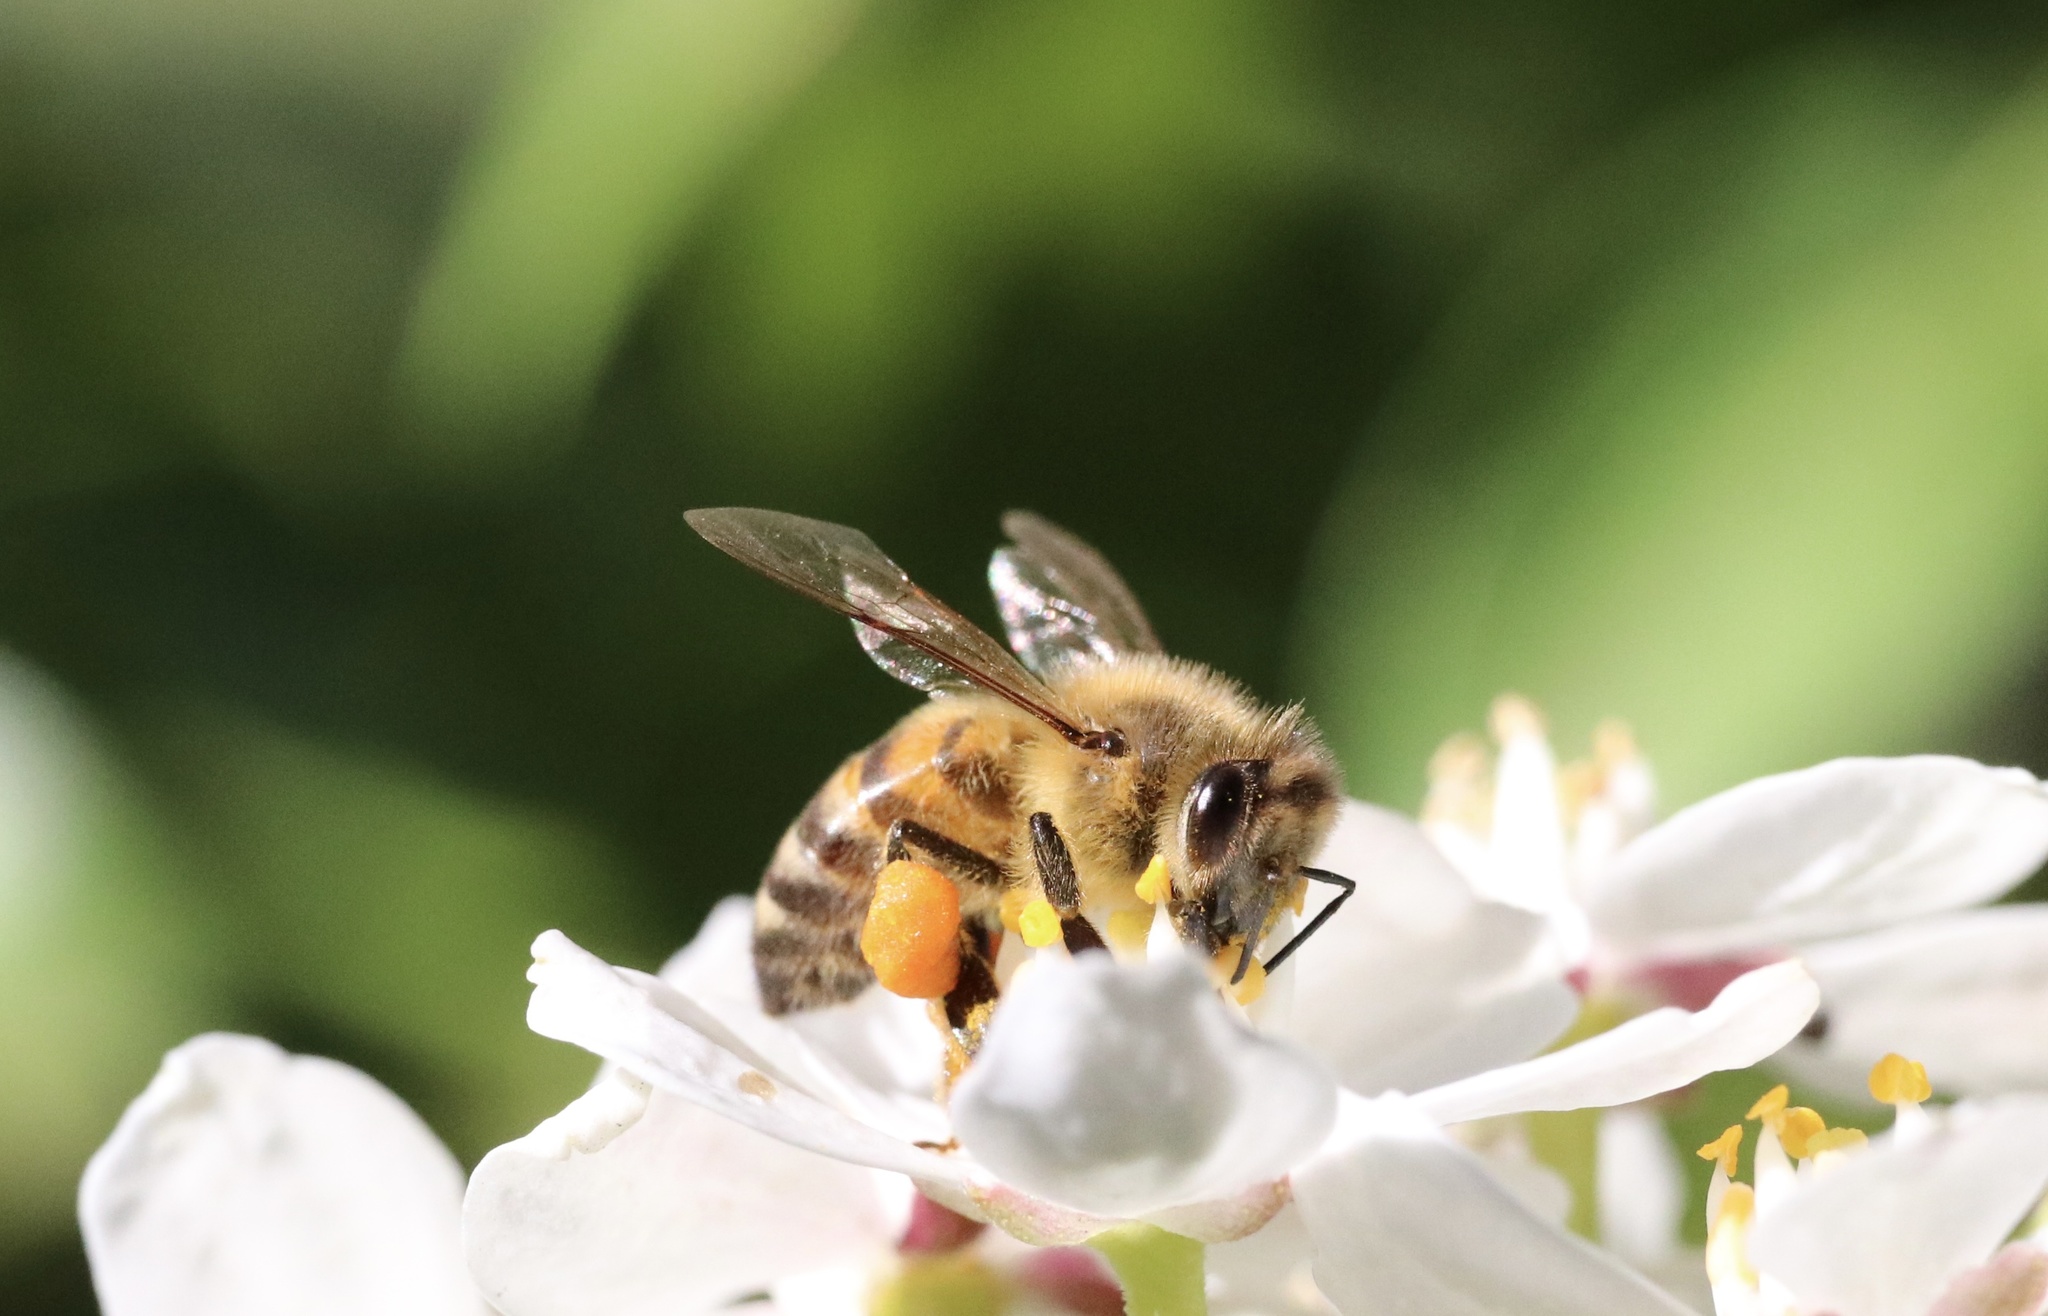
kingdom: Animalia
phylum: Arthropoda
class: Insecta
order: Hymenoptera
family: Apidae
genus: Apis
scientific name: Apis mellifera
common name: Honey bee
